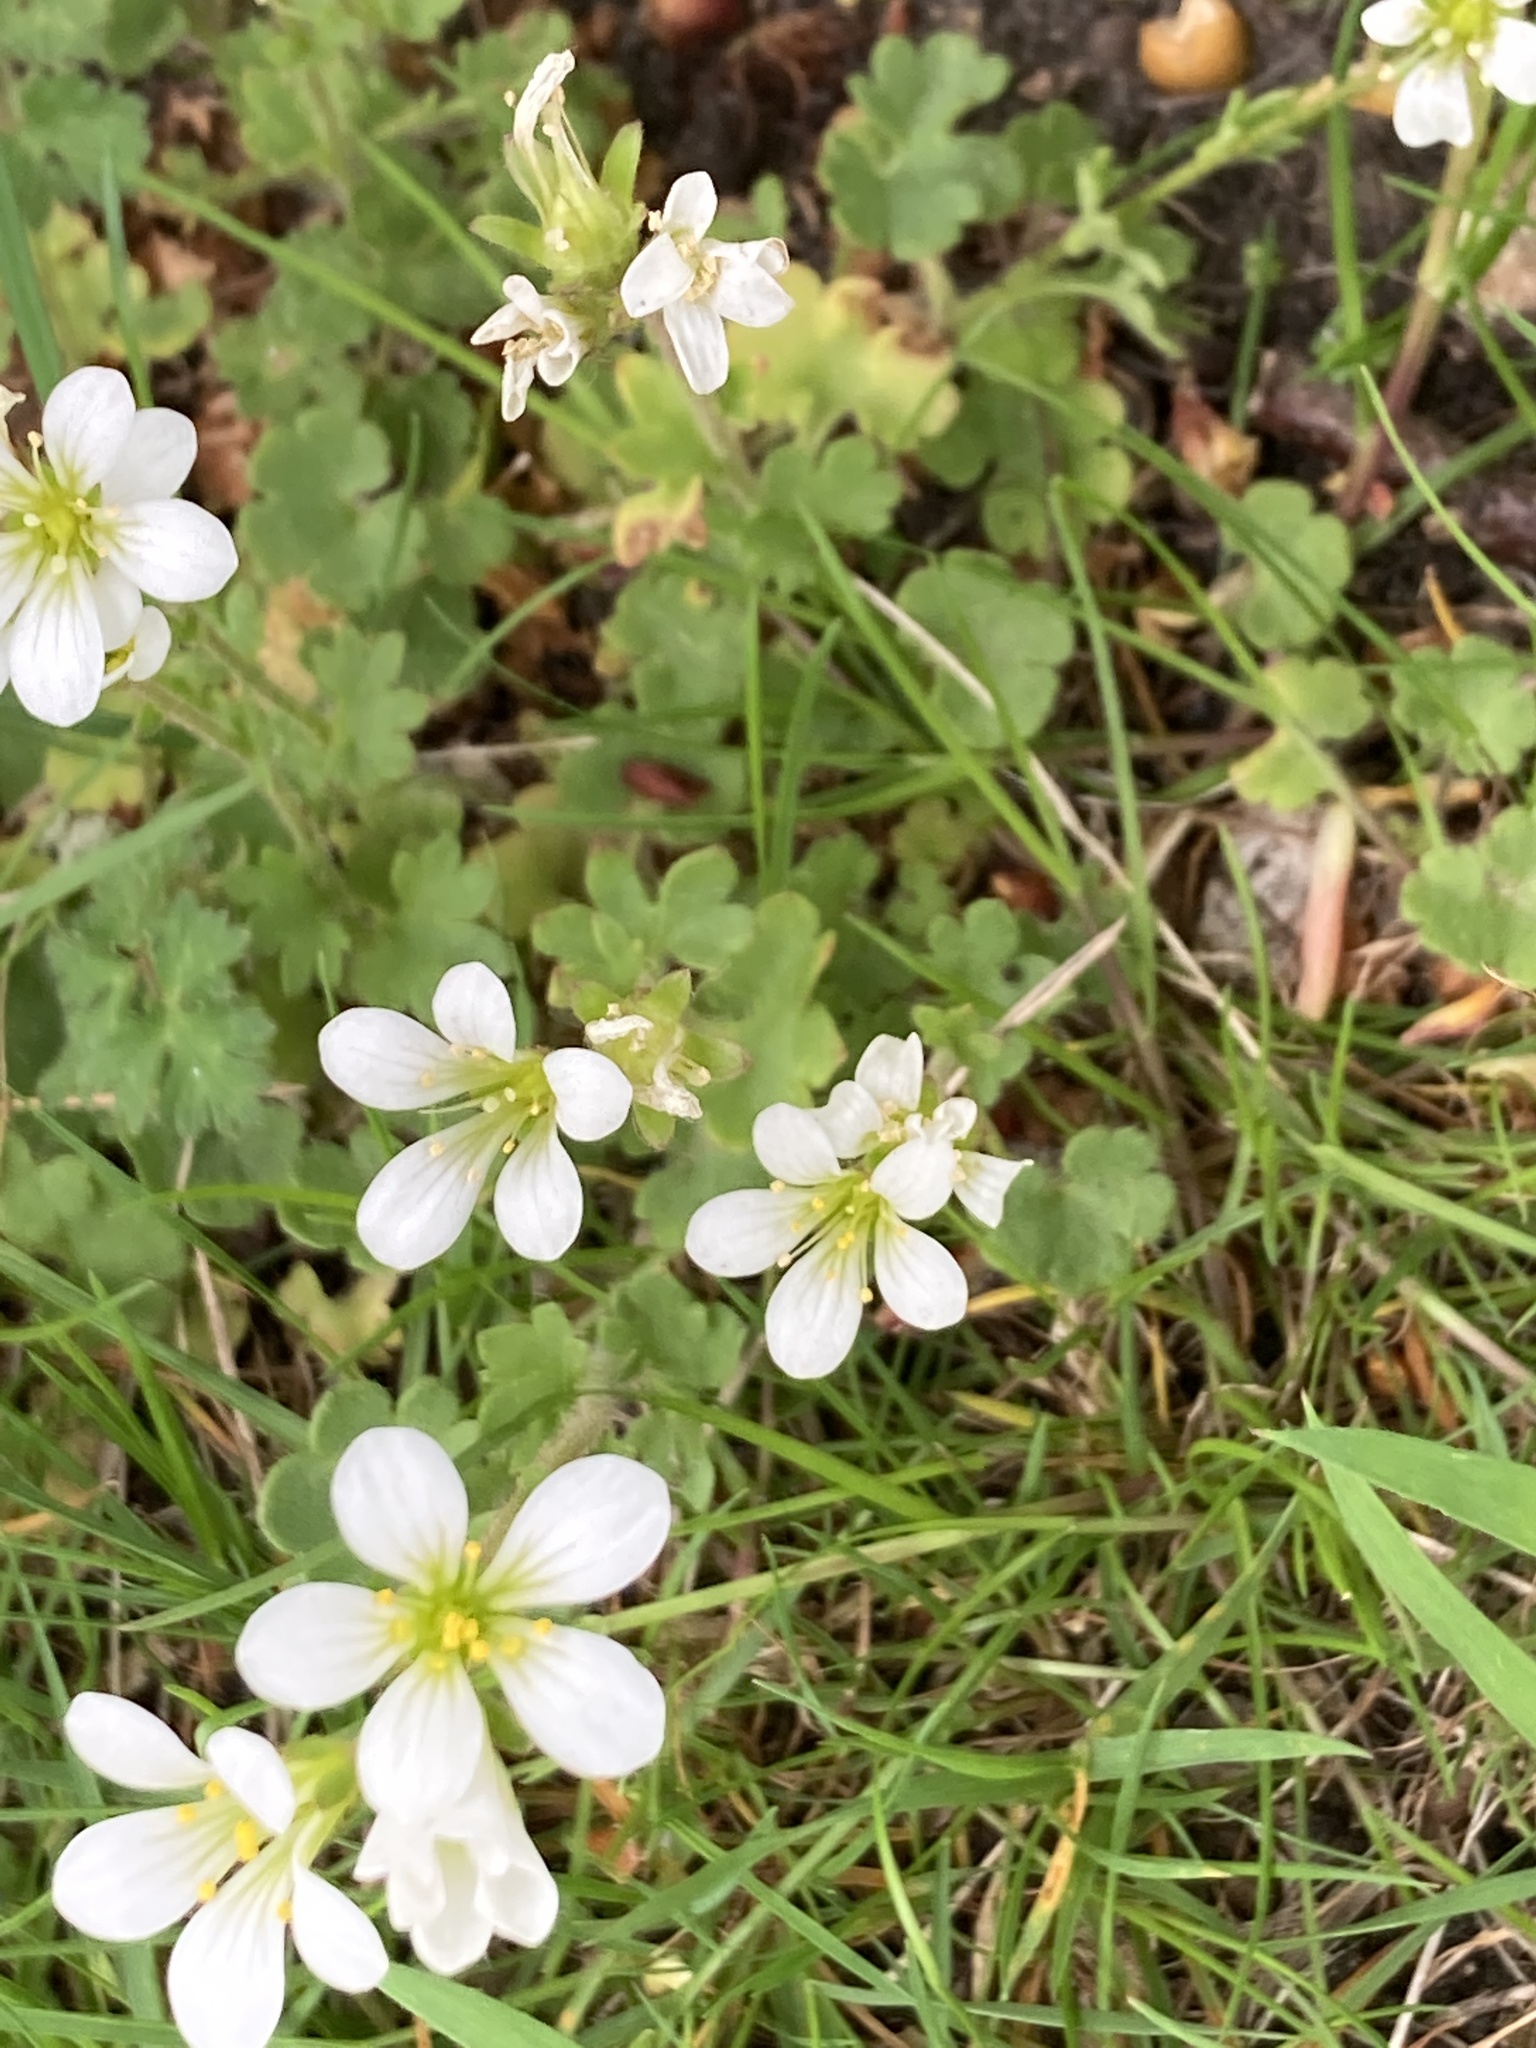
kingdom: Plantae
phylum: Tracheophyta
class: Magnoliopsida
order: Saxifragales
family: Saxifragaceae
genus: Saxifraga
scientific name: Saxifraga granulata
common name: Meadow saxifrage
